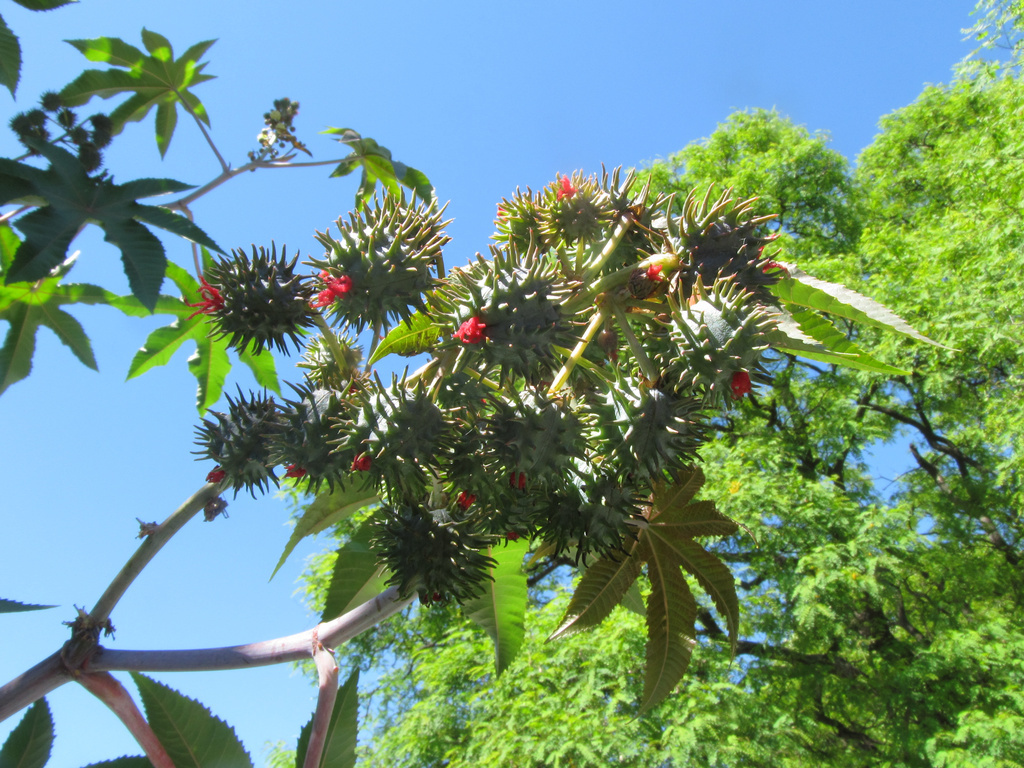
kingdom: Plantae
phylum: Tracheophyta
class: Magnoliopsida
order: Malpighiales
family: Euphorbiaceae
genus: Ricinus
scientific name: Ricinus communis
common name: Castor-oil-plant
